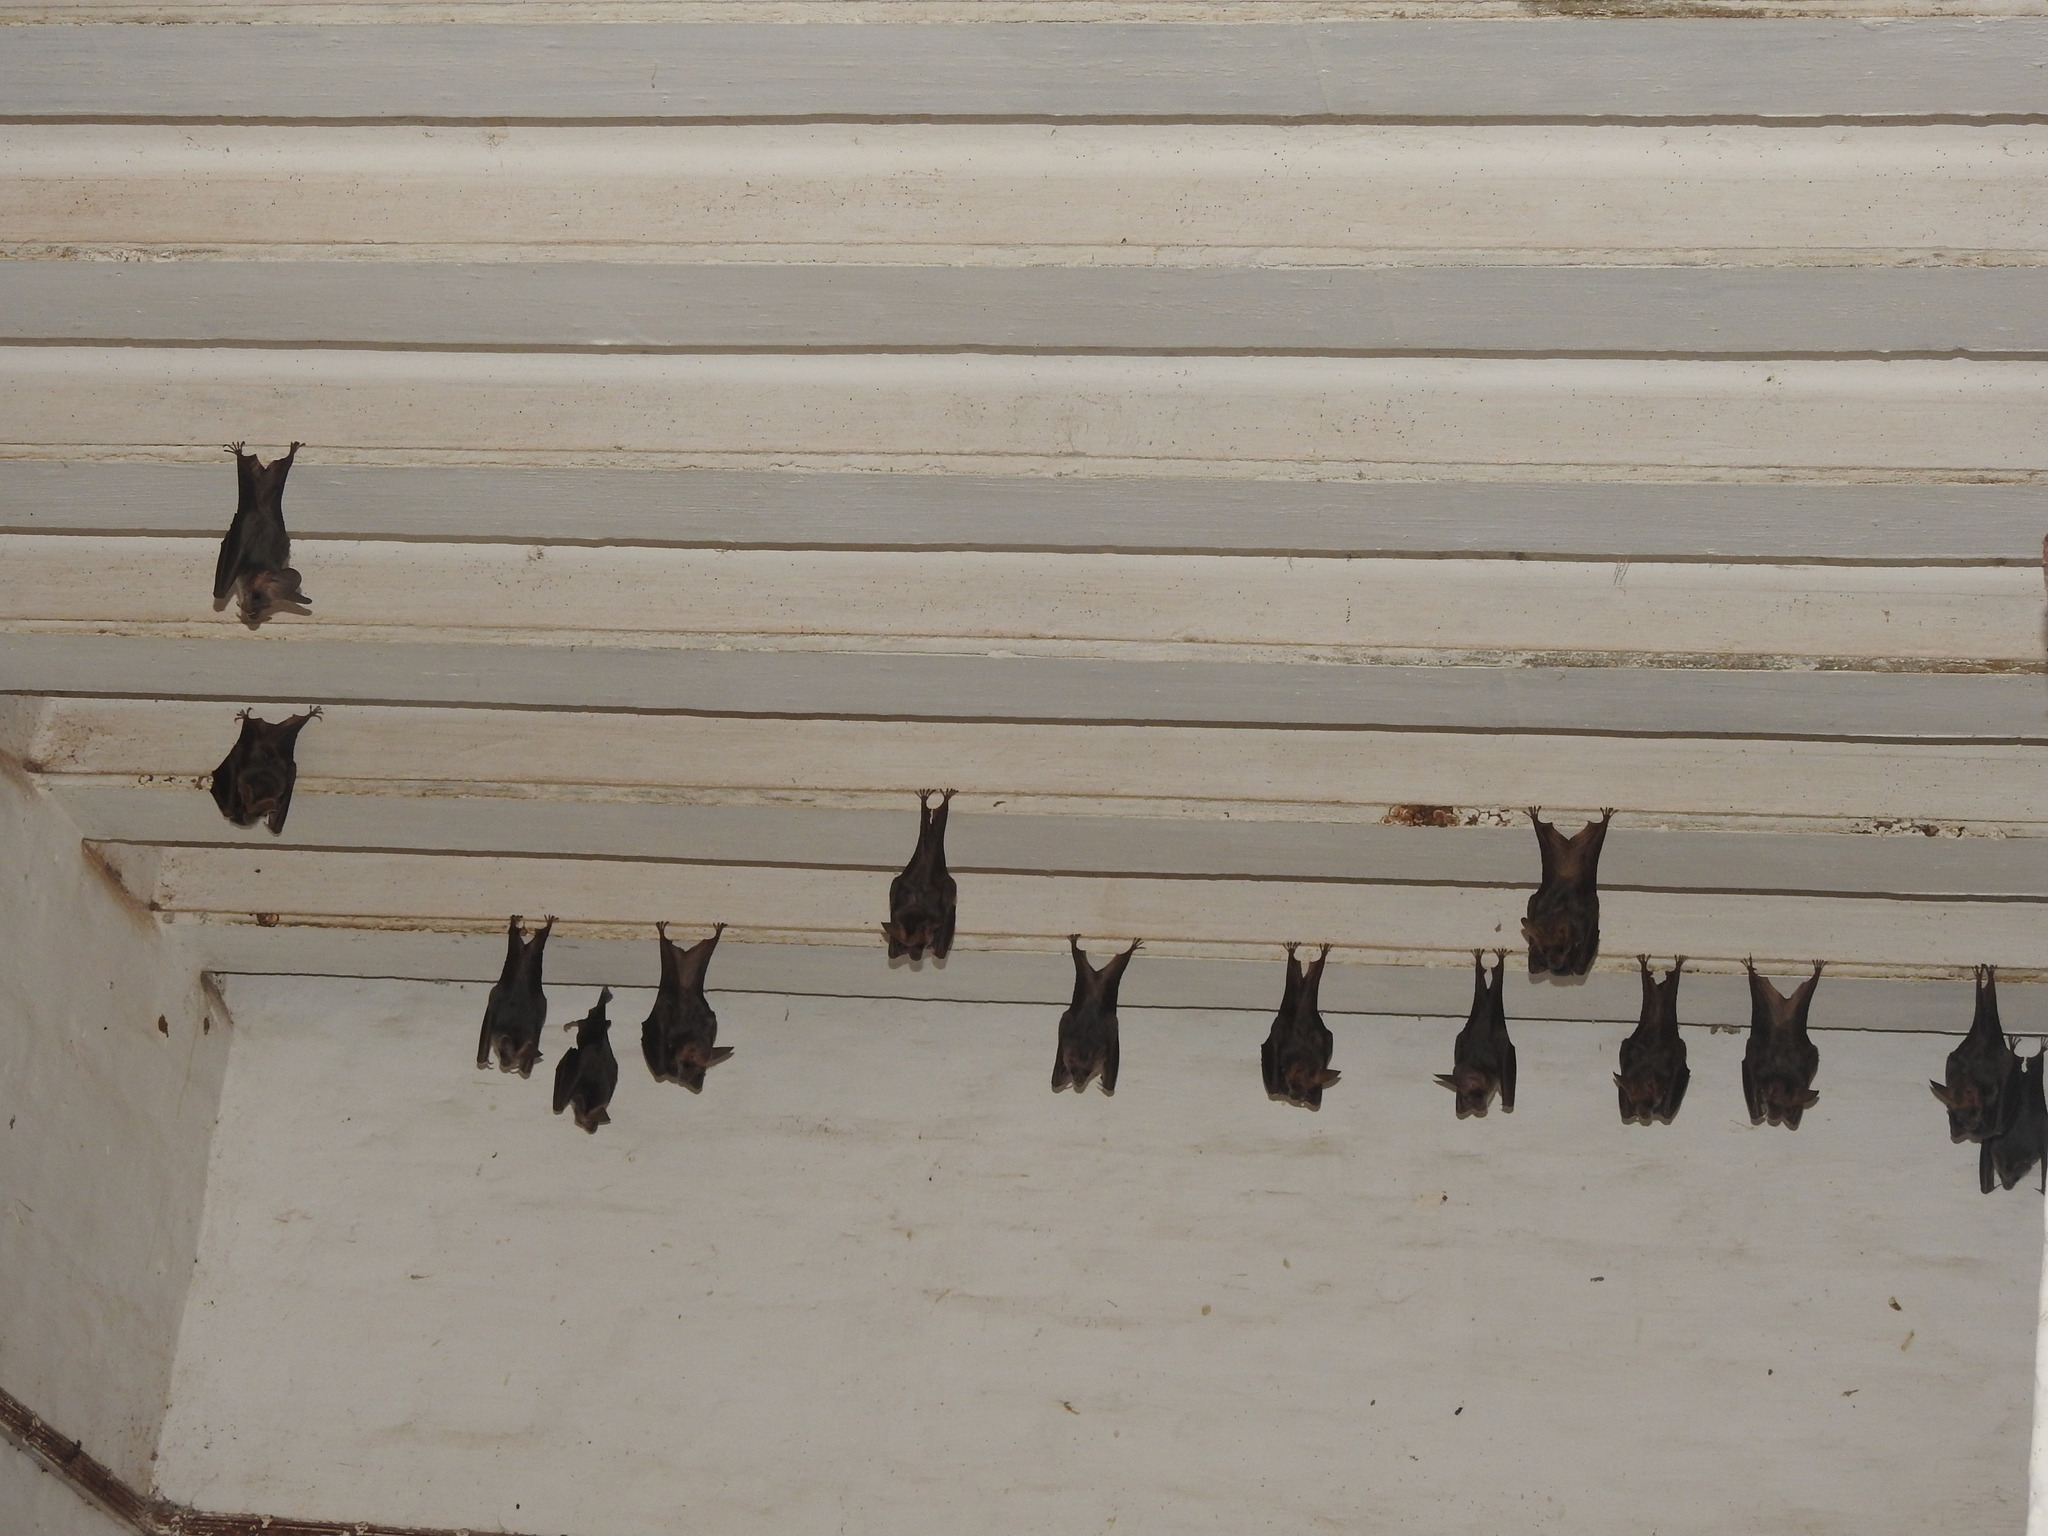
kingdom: Animalia
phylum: Chordata
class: Mammalia
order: Chiroptera
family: Megadermatidae
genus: Lyroderma
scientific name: Lyroderma lyra
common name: Greater false vampire bat
